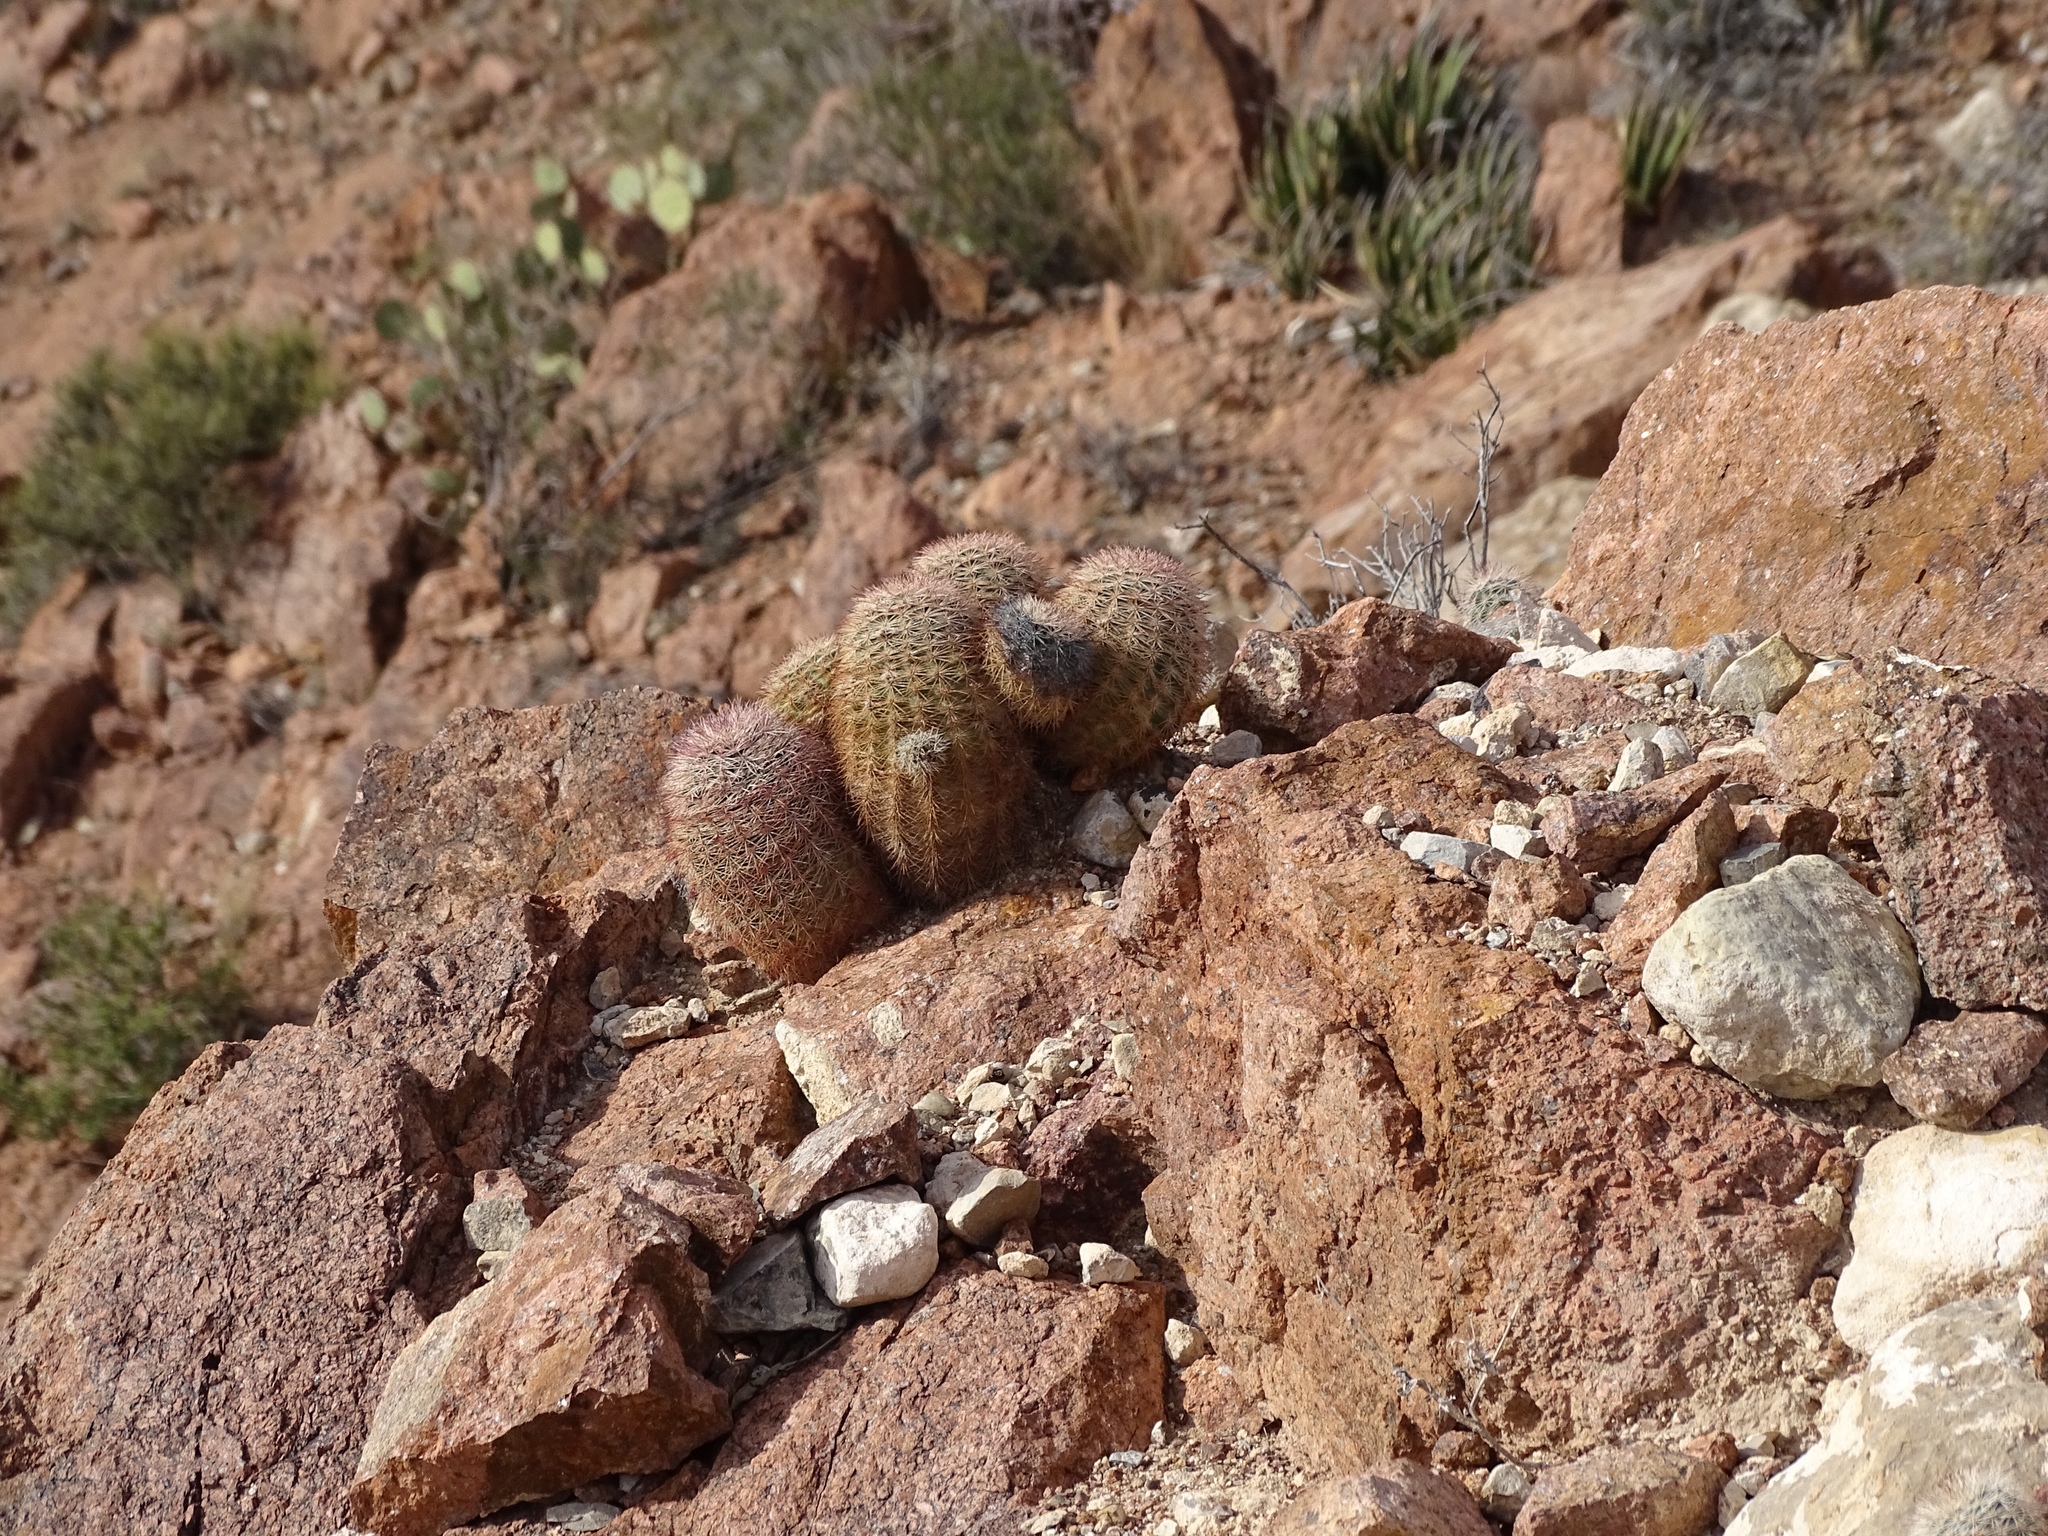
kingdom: Plantae
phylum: Tracheophyta
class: Magnoliopsida
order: Caryophyllales
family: Cactaceae
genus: Echinocereus
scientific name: Echinocereus dasyacanthus
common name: Spiny hedgehog cactus
